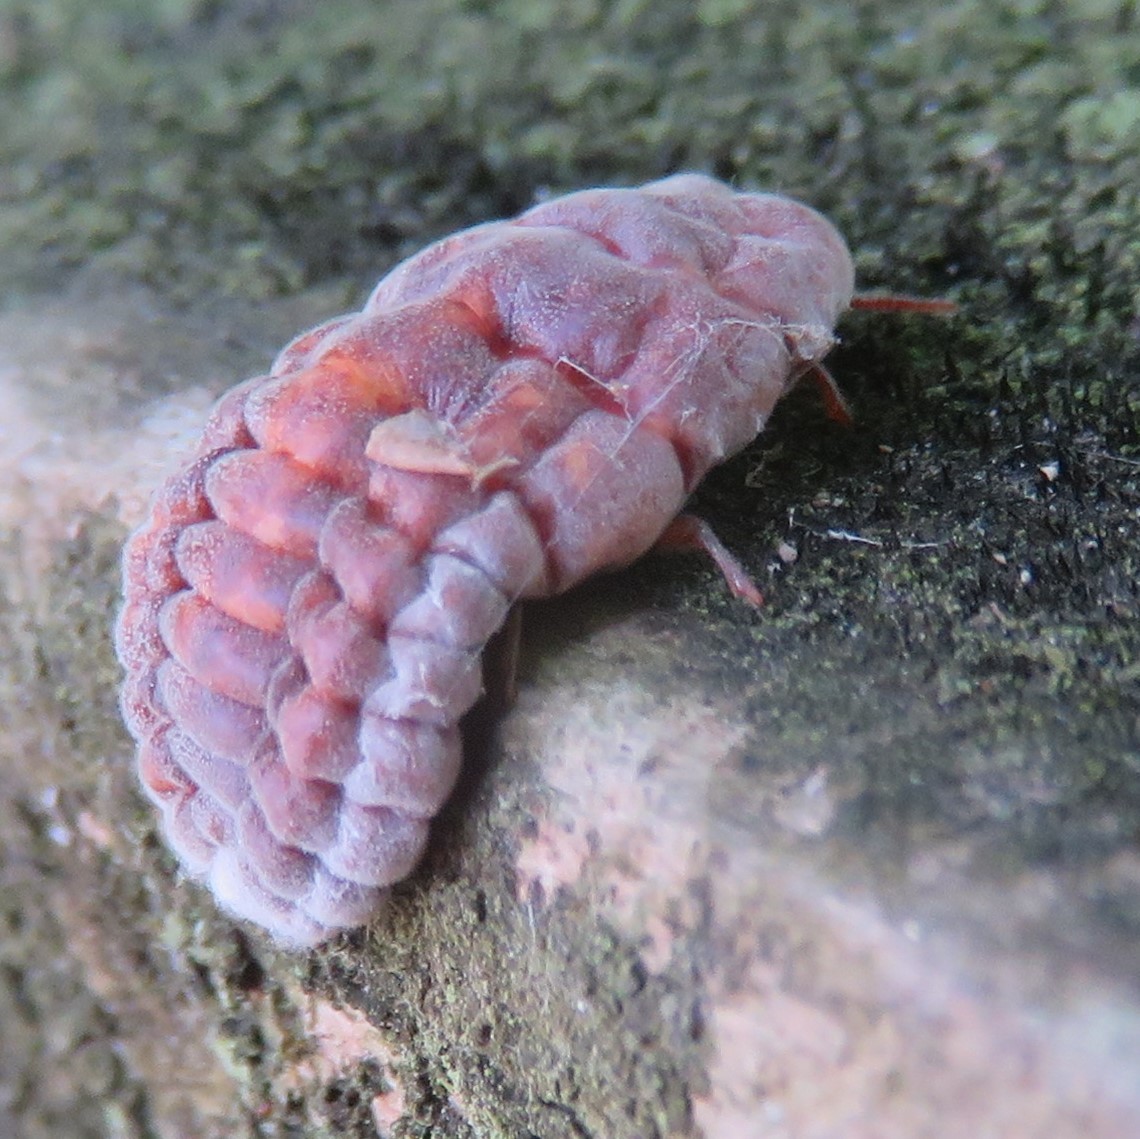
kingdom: Animalia
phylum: Arthropoda
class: Insecta
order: Hemiptera
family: Margarodidae
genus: Coelostomidia
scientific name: Coelostomidia zealandica
